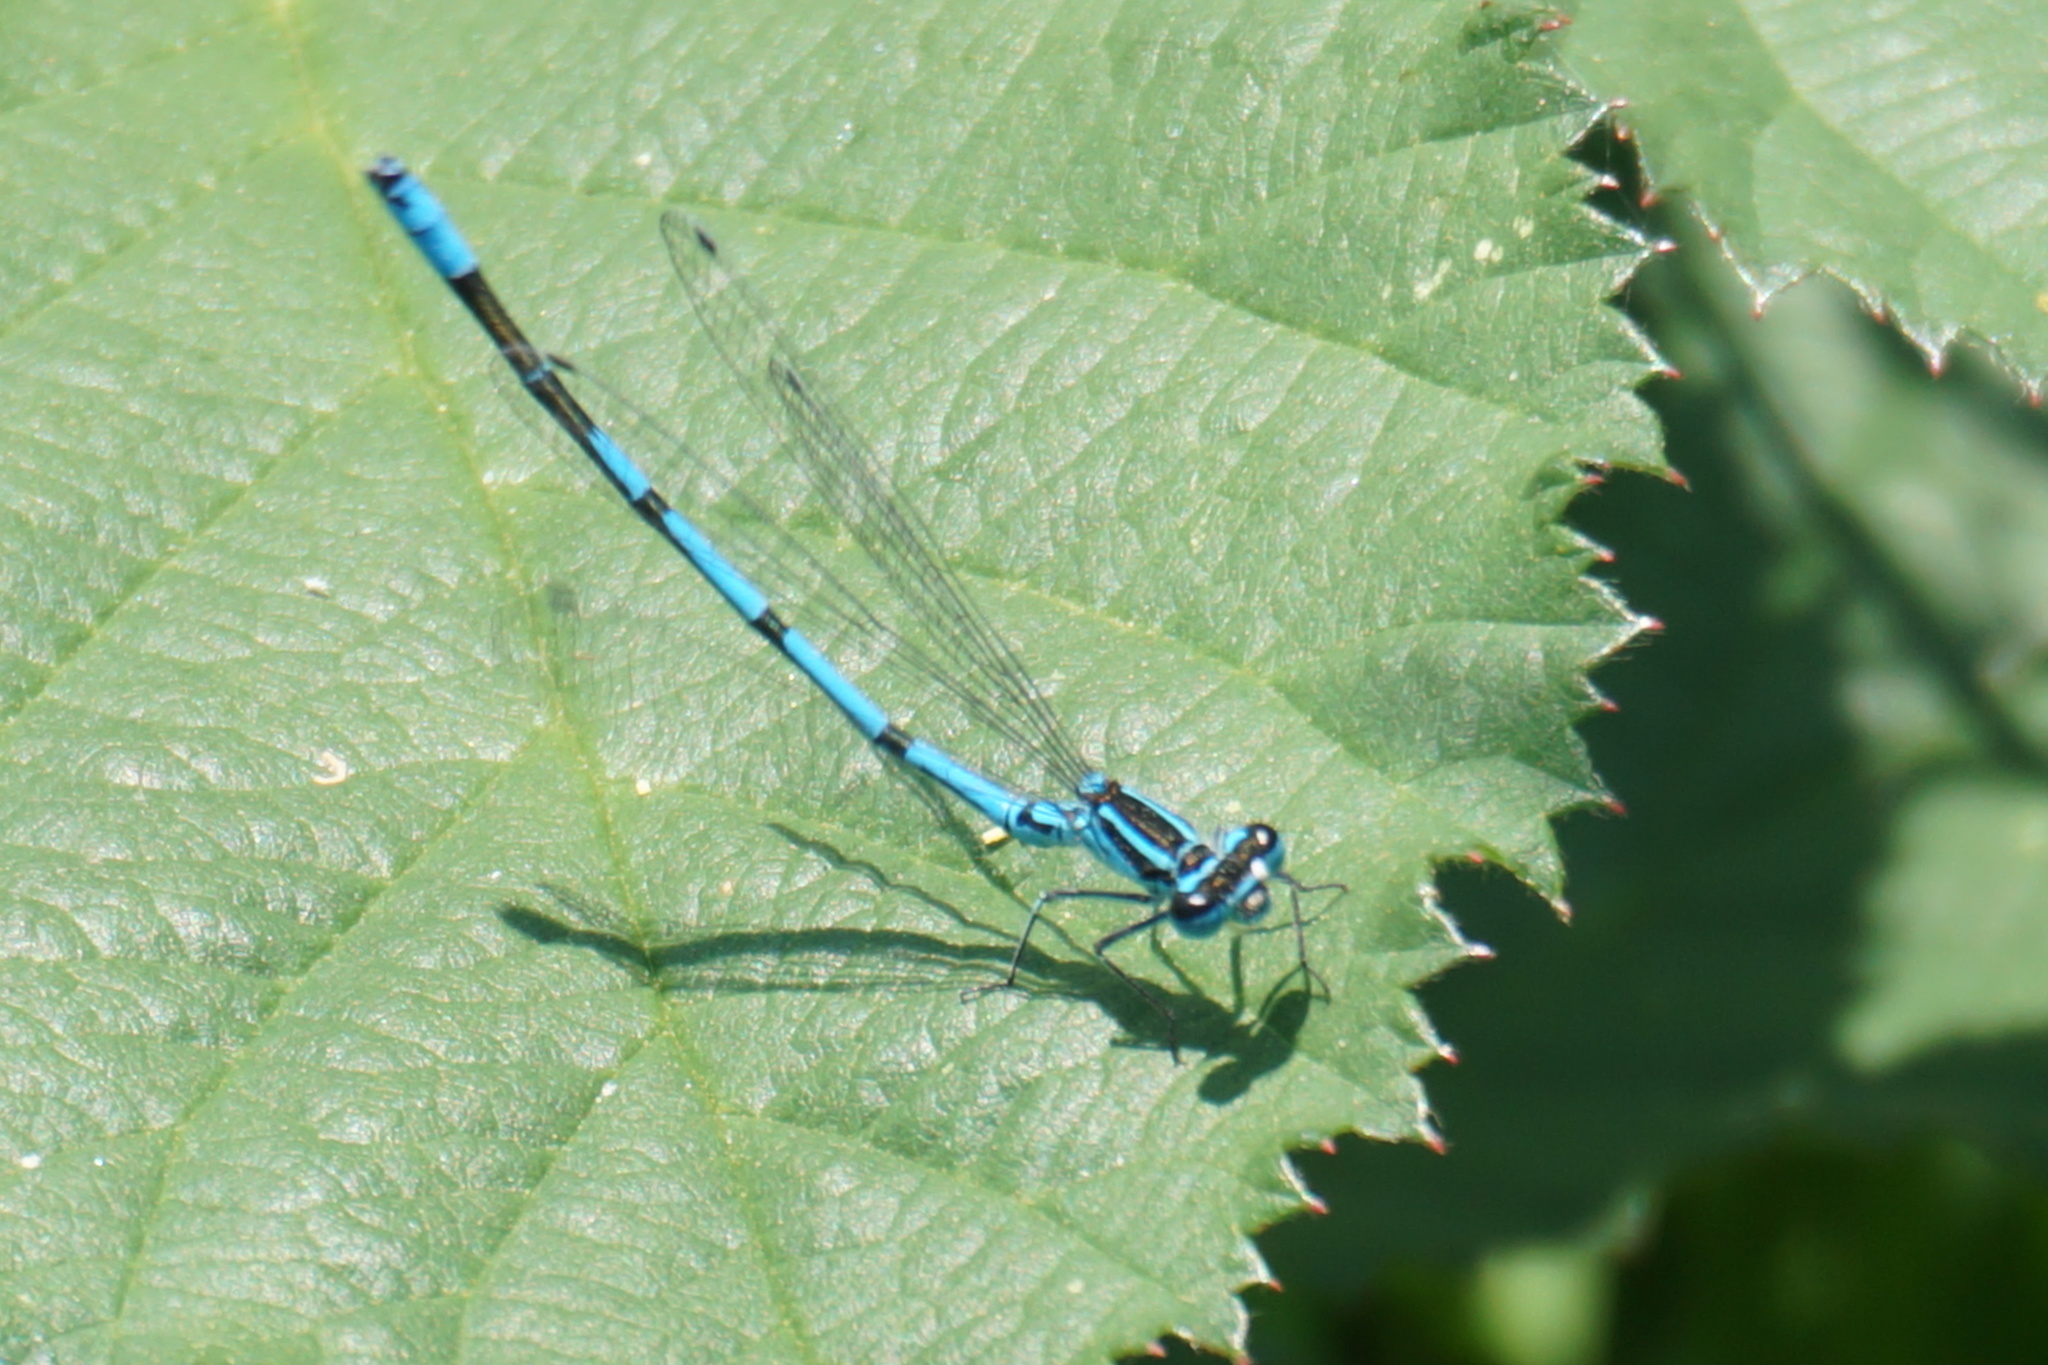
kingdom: Animalia
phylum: Arthropoda
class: Insecta
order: Odonata
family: Coenagrionidae
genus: Coenagrion
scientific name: Coenagrion puella
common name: Azure damselfly
